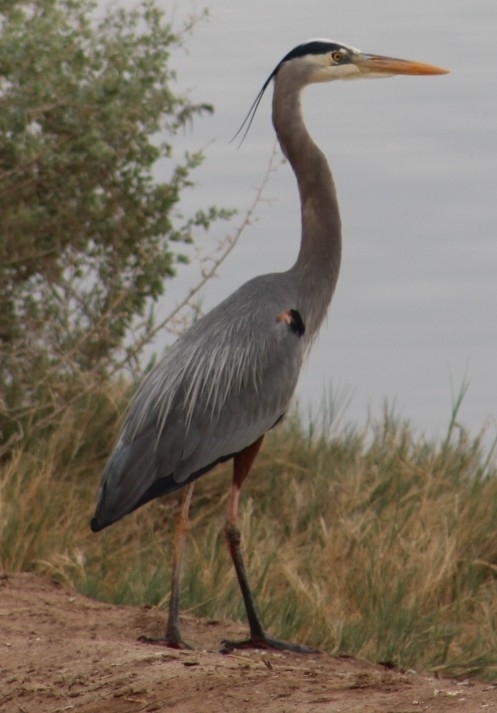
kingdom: Animalia
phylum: Chordata
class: Aves
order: Pelecaniformes
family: Ardeidae
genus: Ardea
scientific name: Ardea herodias
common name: Great blue heron
